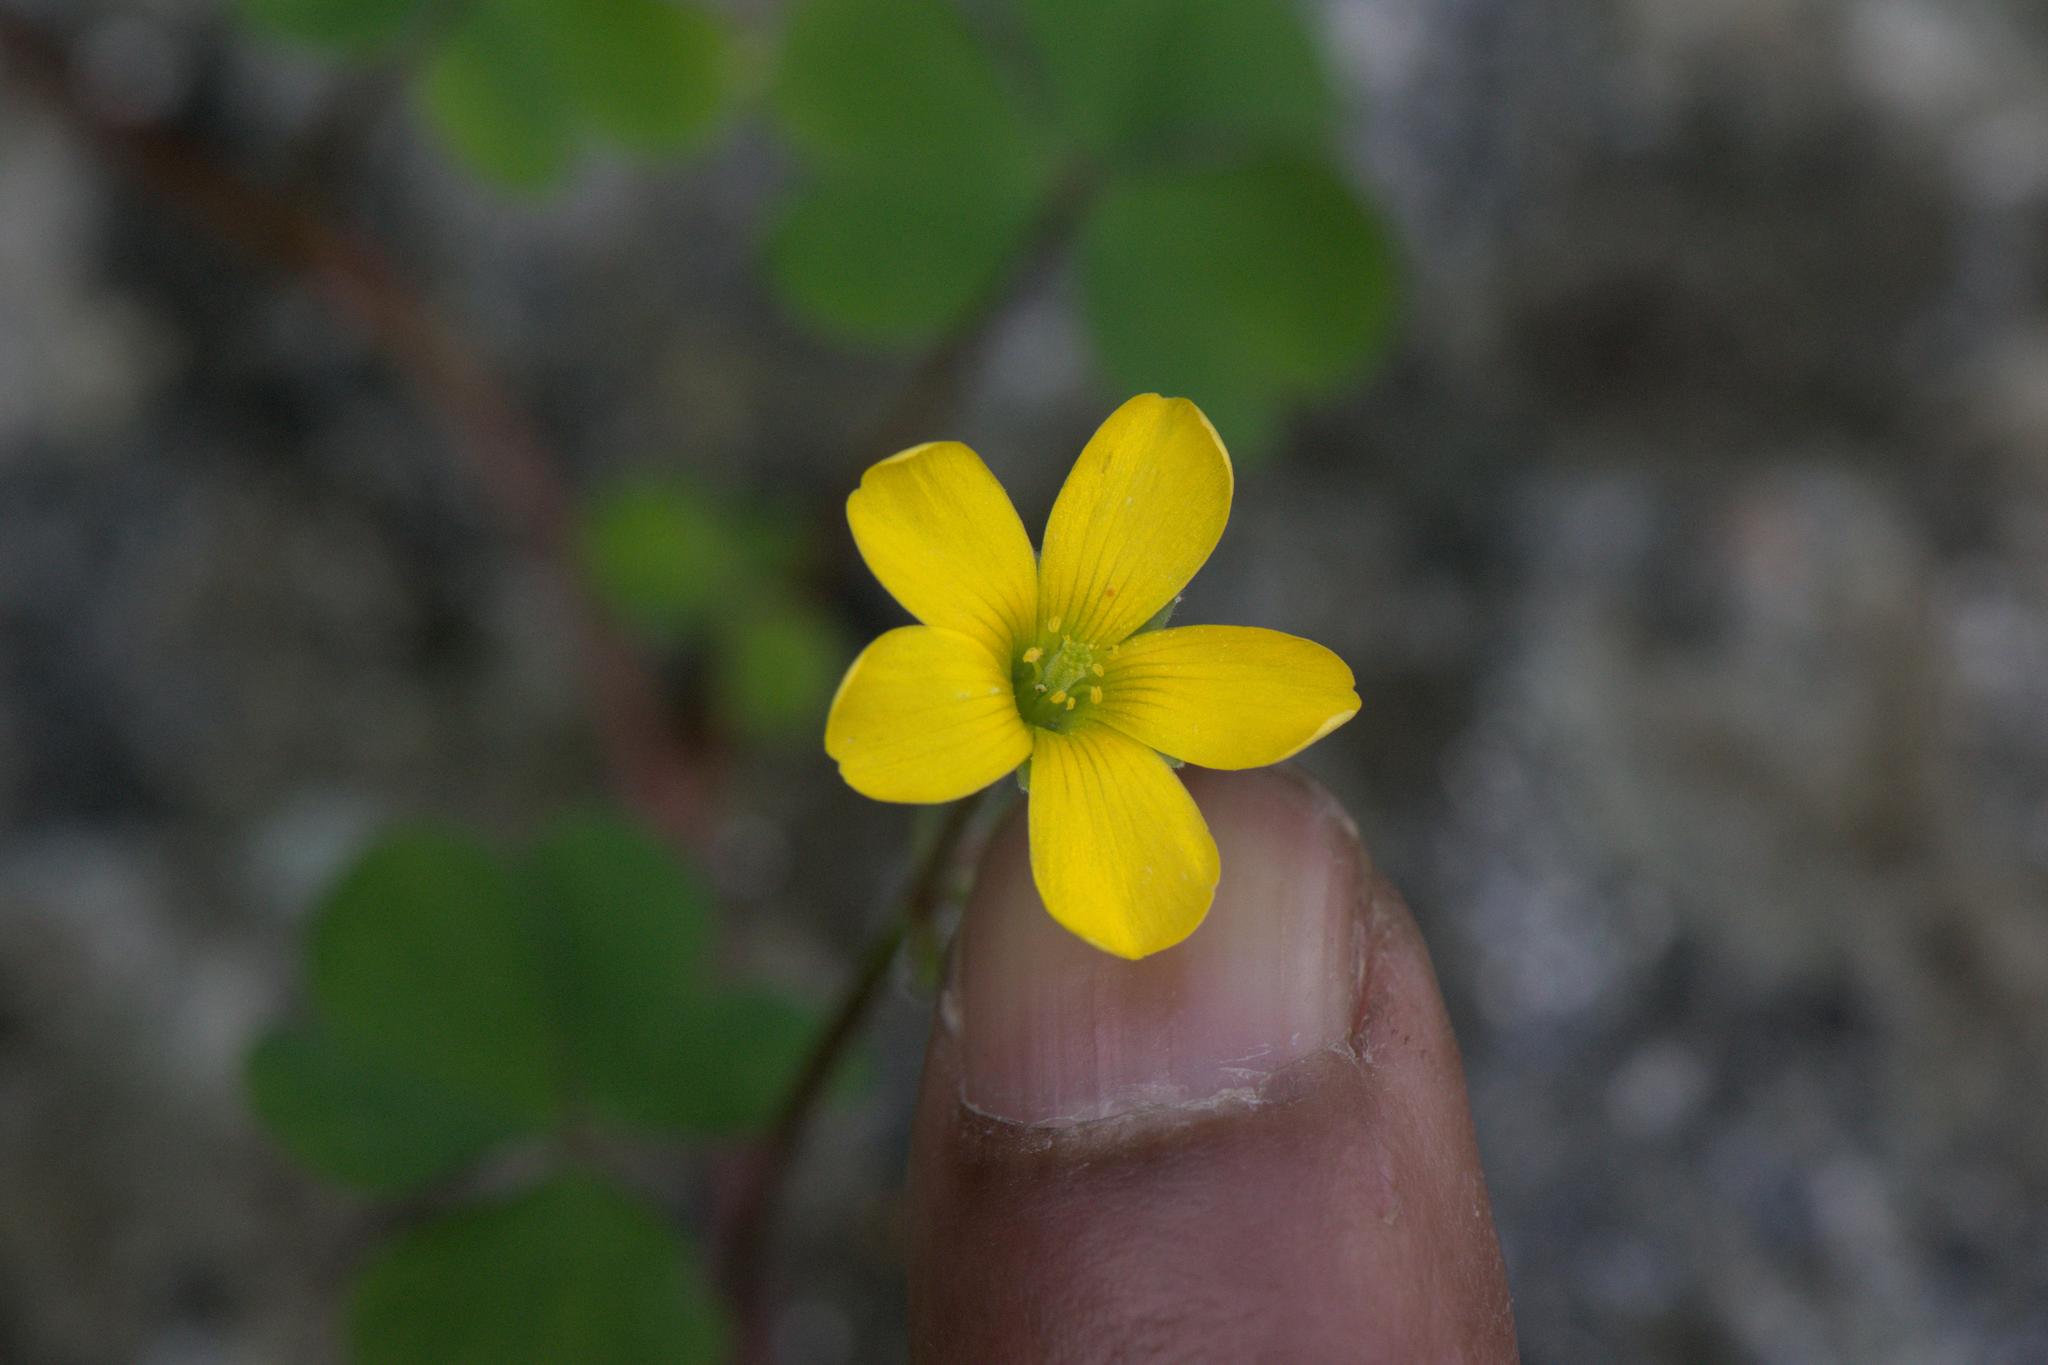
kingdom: Plantae
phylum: Tracheophyta
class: Magnoliopsida
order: Oxalidales
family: Oxalidaceae
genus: Oxalis
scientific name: Oxalis corniculata
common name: Procumbent yellow-sorrel
